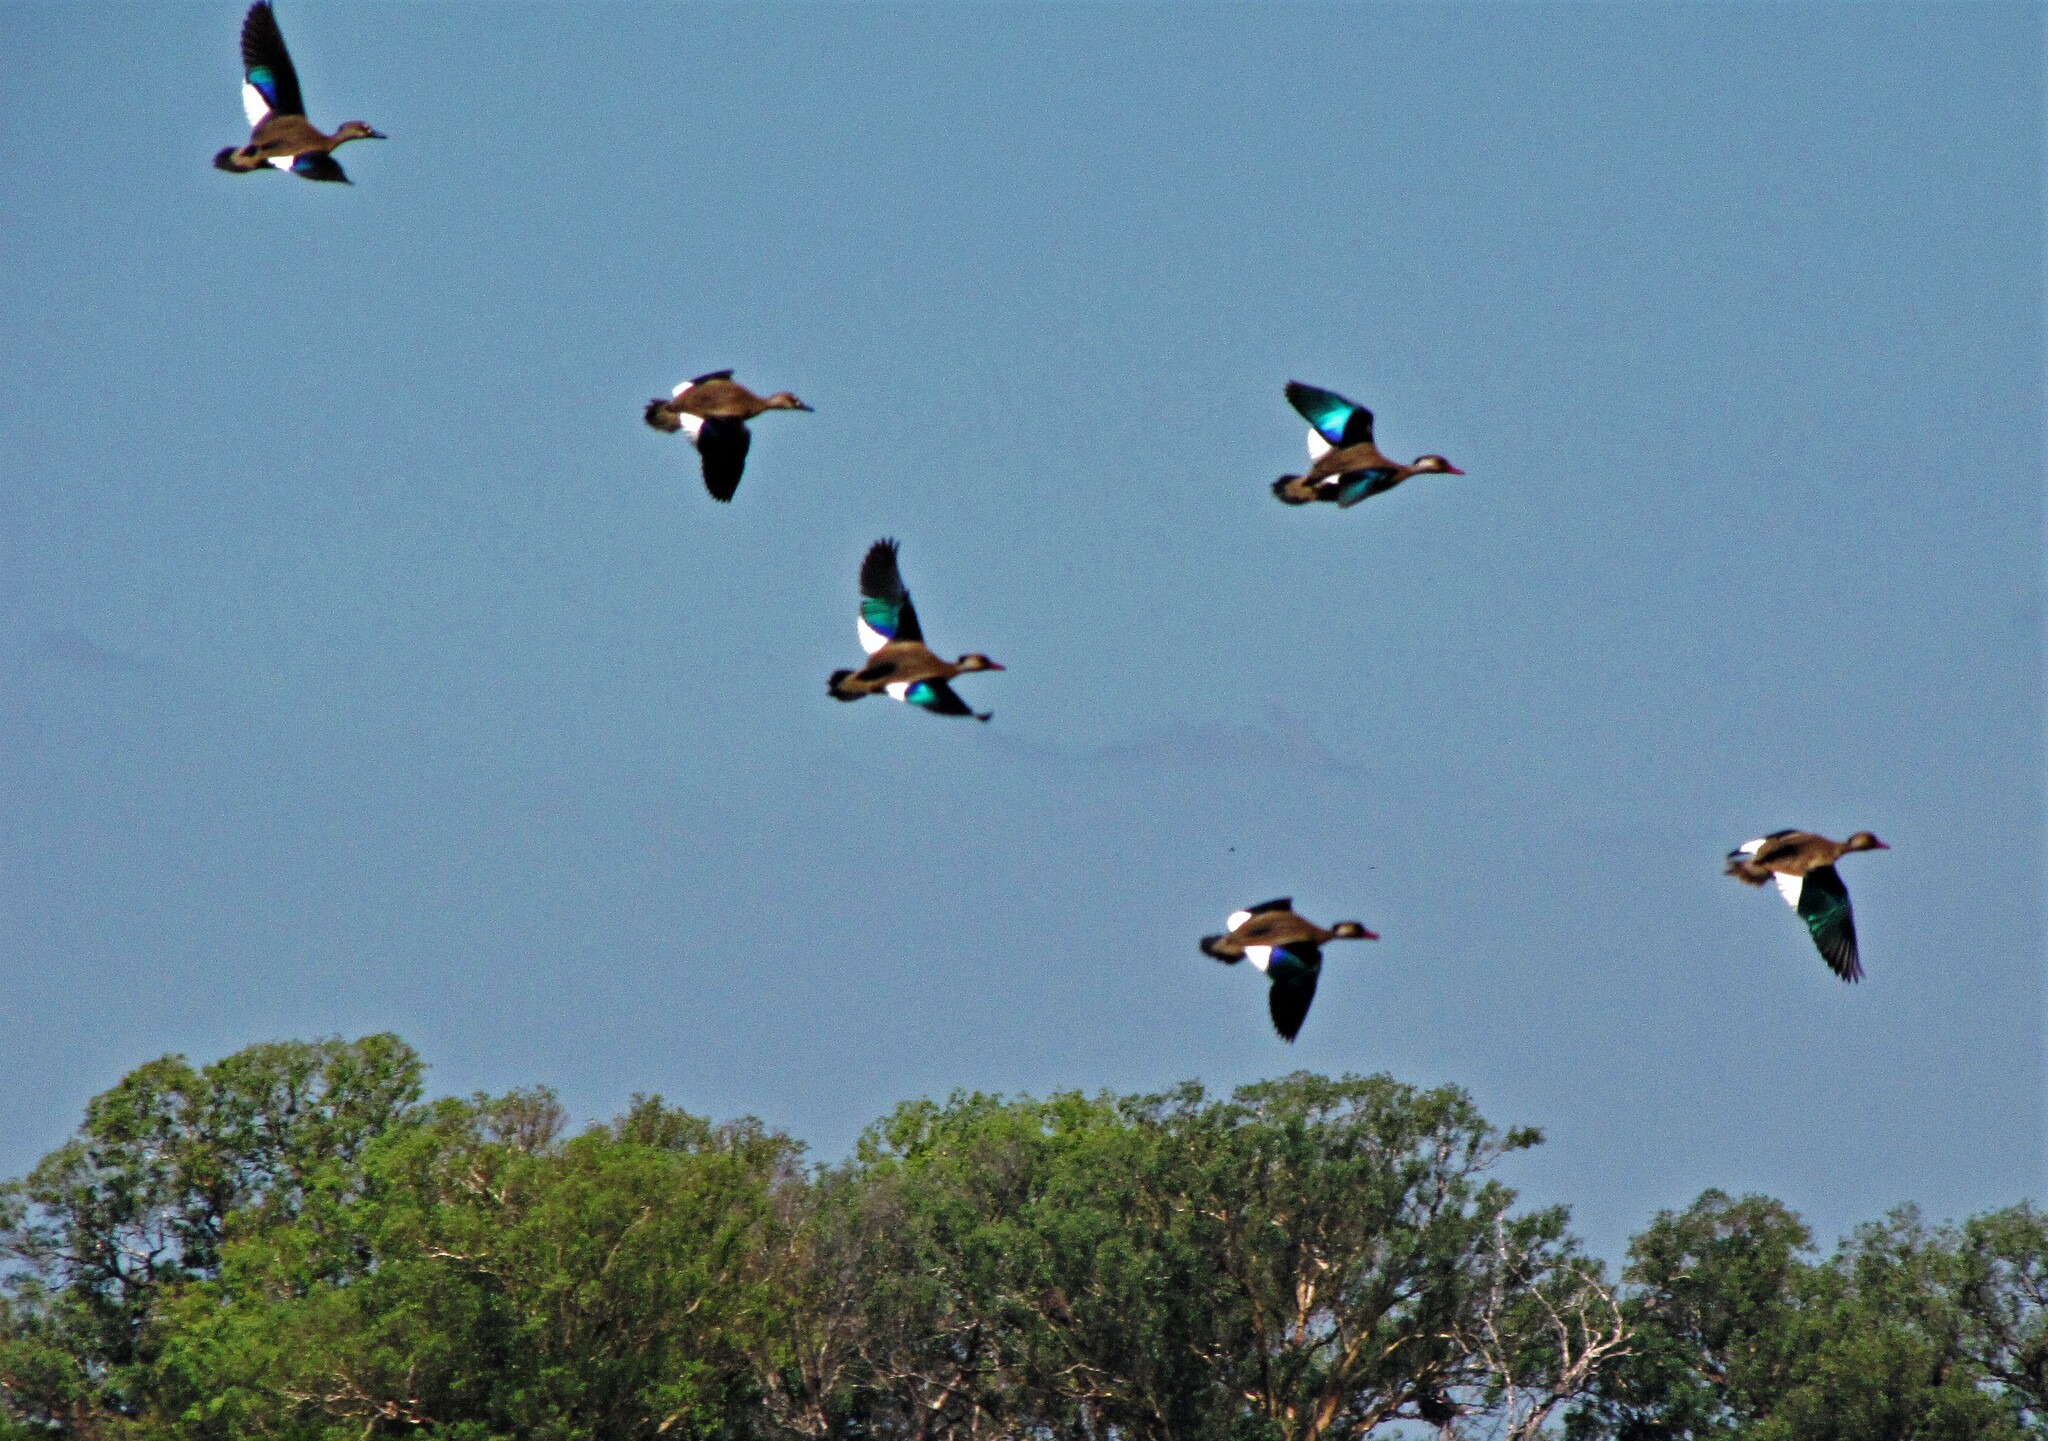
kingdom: Animalia
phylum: Chordata
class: Aves
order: Anseriformes
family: Anatidae
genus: Amazonetta
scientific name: Amazonetta brasiliensis
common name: Brazilian teal
